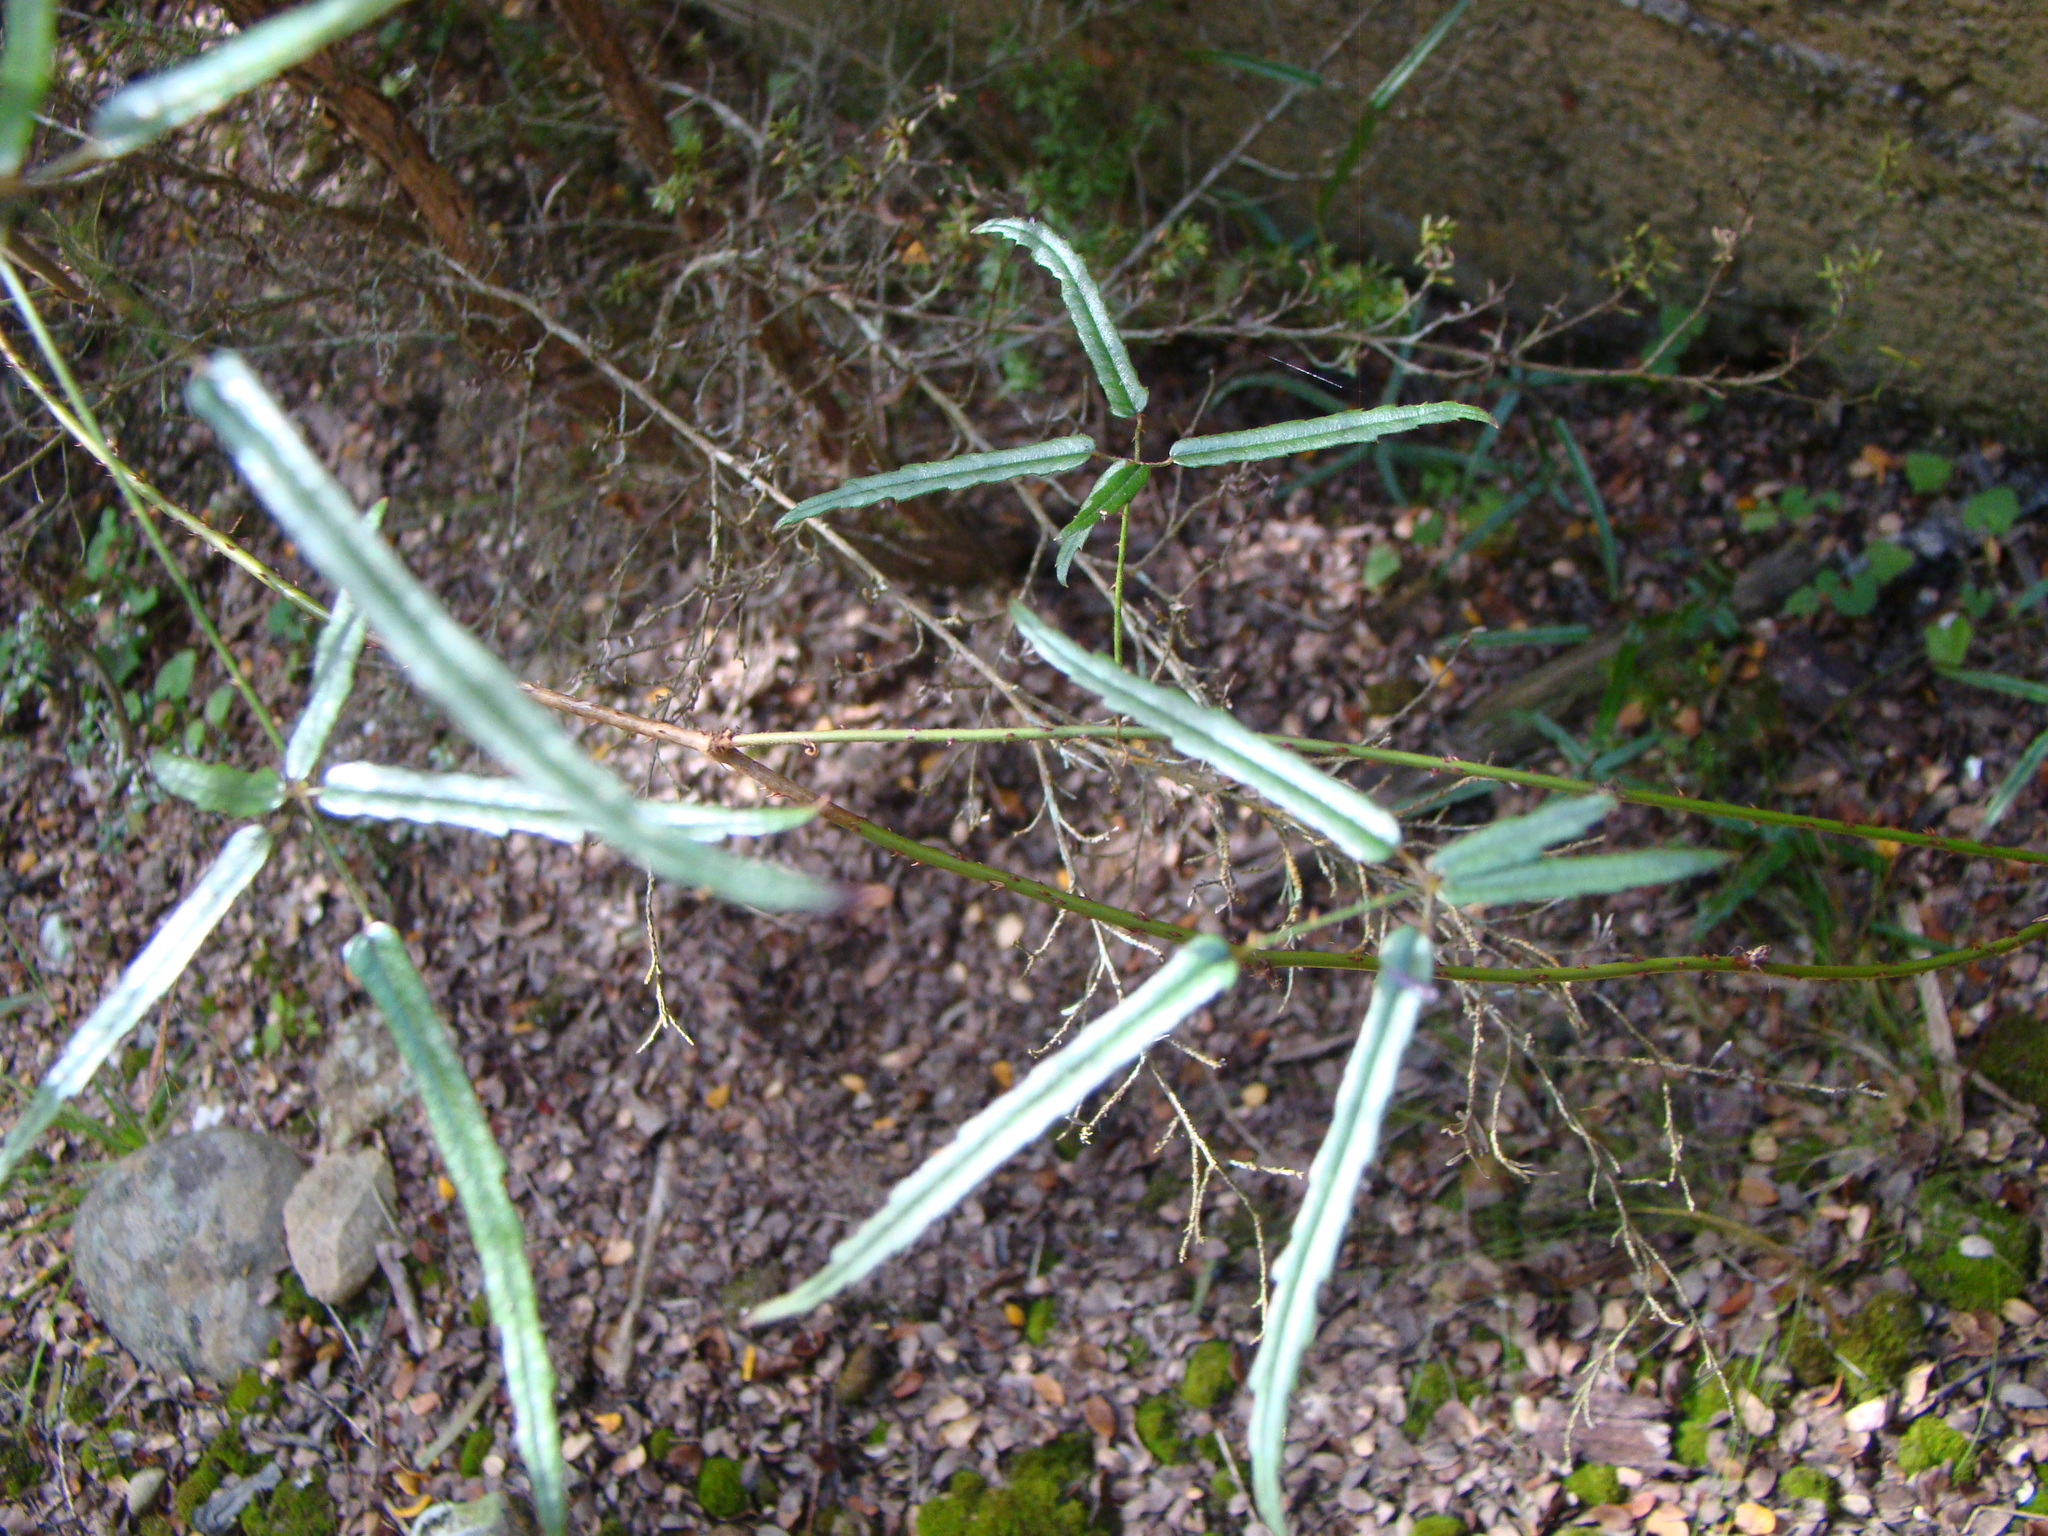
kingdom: Plantae
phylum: Tracheophyta
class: Magnoliopsida
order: Rosales
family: Rosaceae
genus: Rubus
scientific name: Rubus schmidelioides
